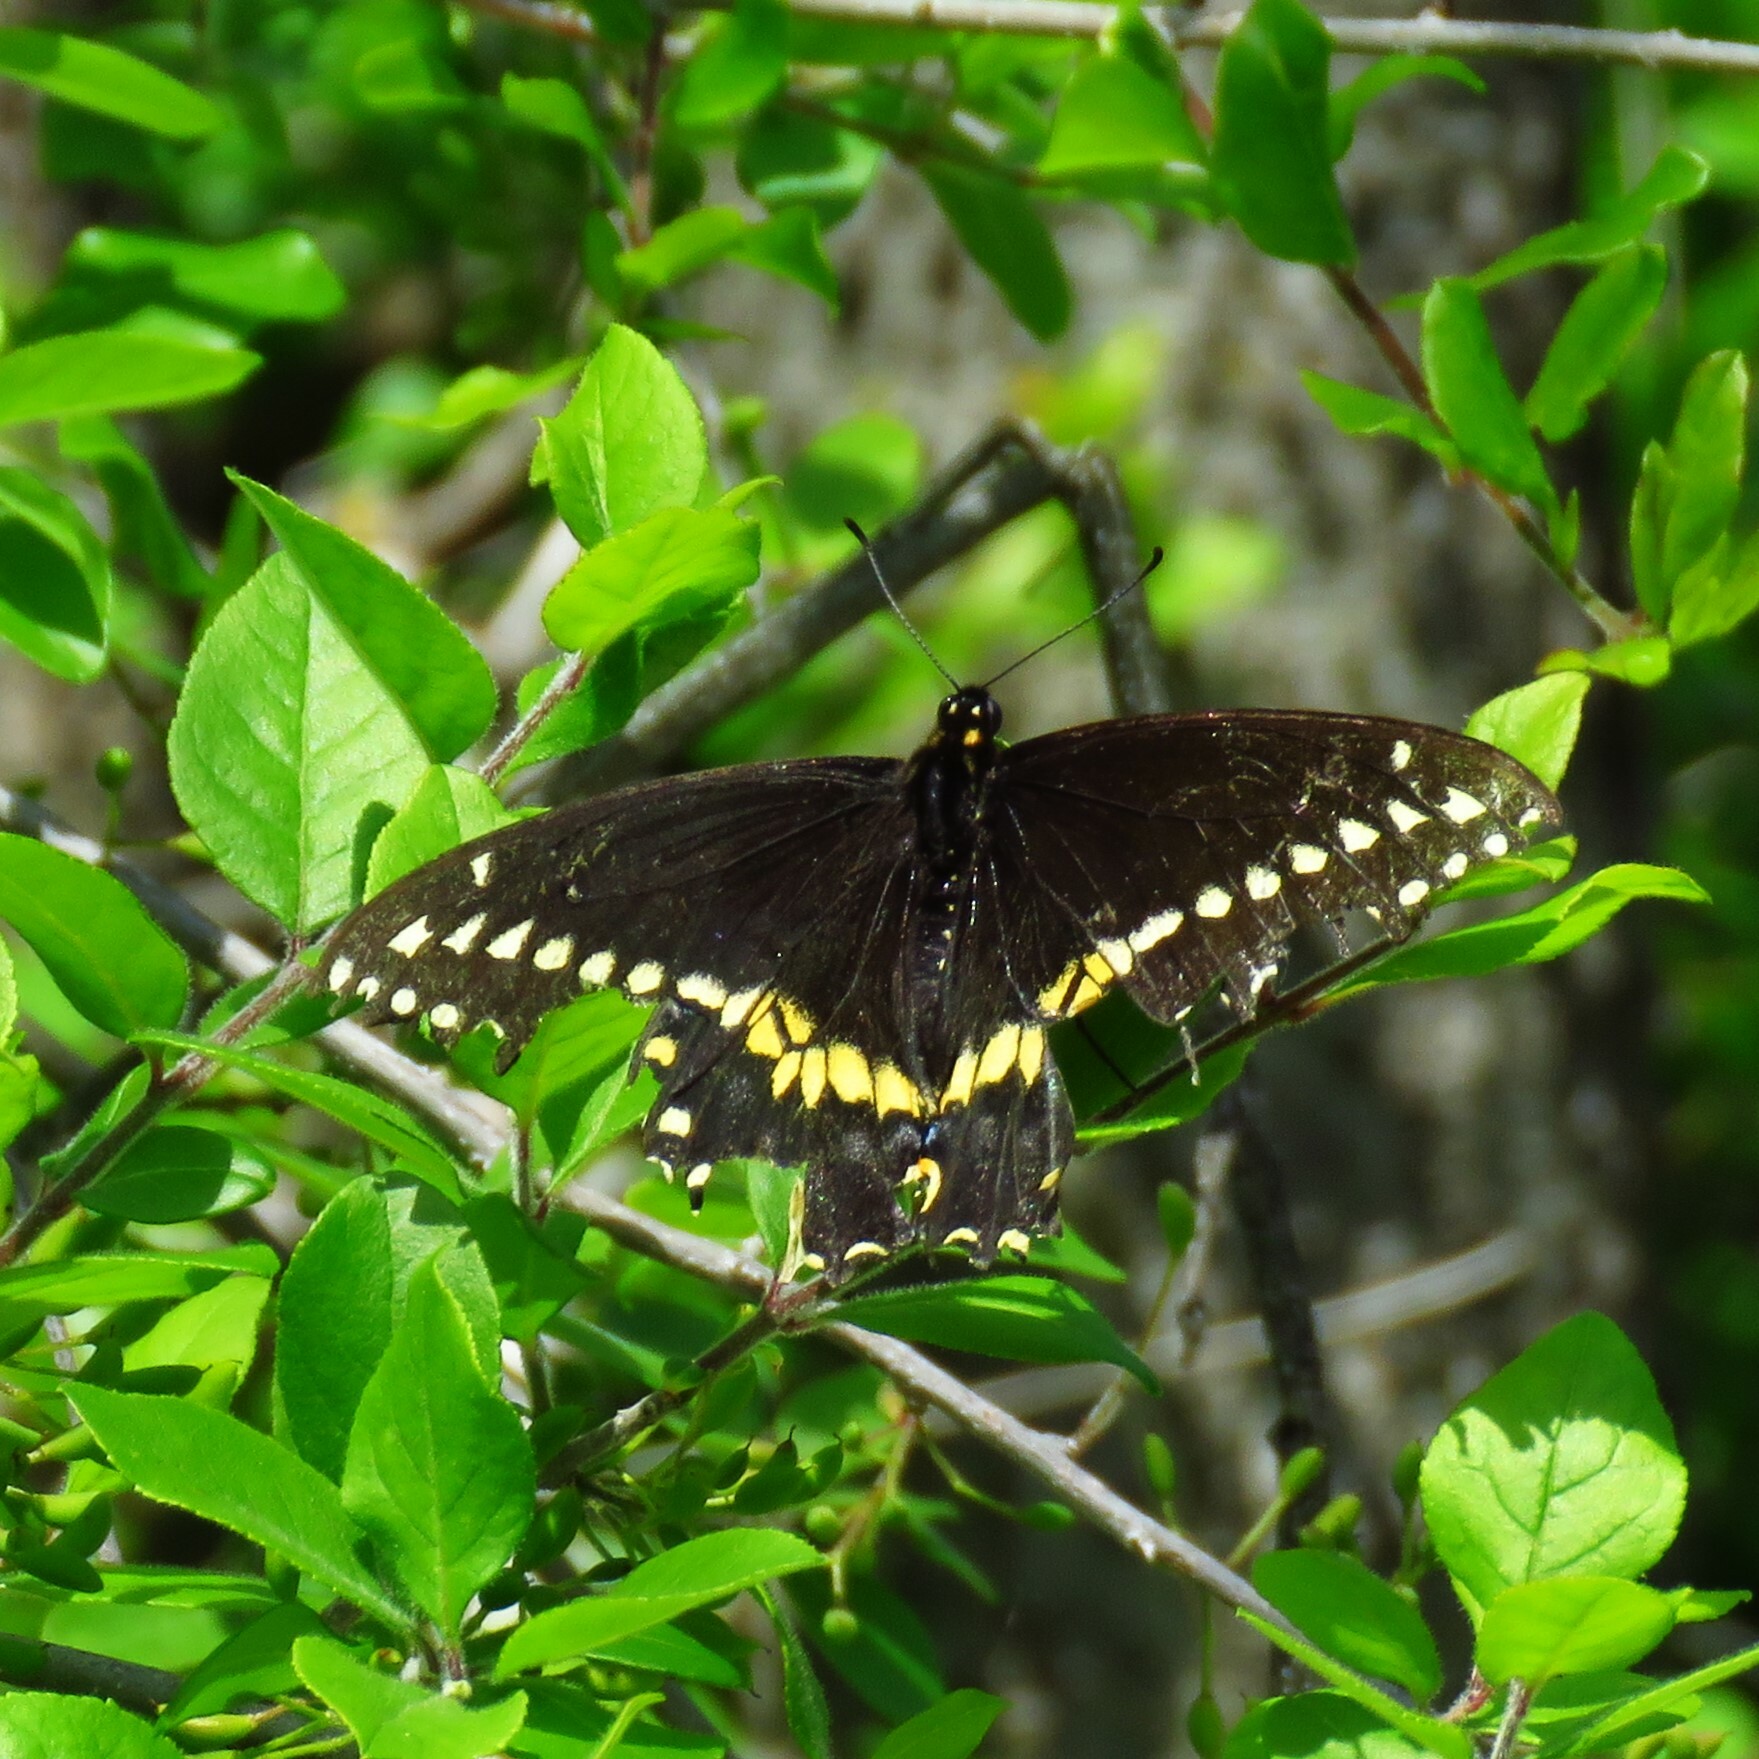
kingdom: Animalia
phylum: Arthropoda
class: Insecta
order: Lepidoptera
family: Papilionidae
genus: Papilio
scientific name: Papilio polyxenes
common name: Black swallowtail
